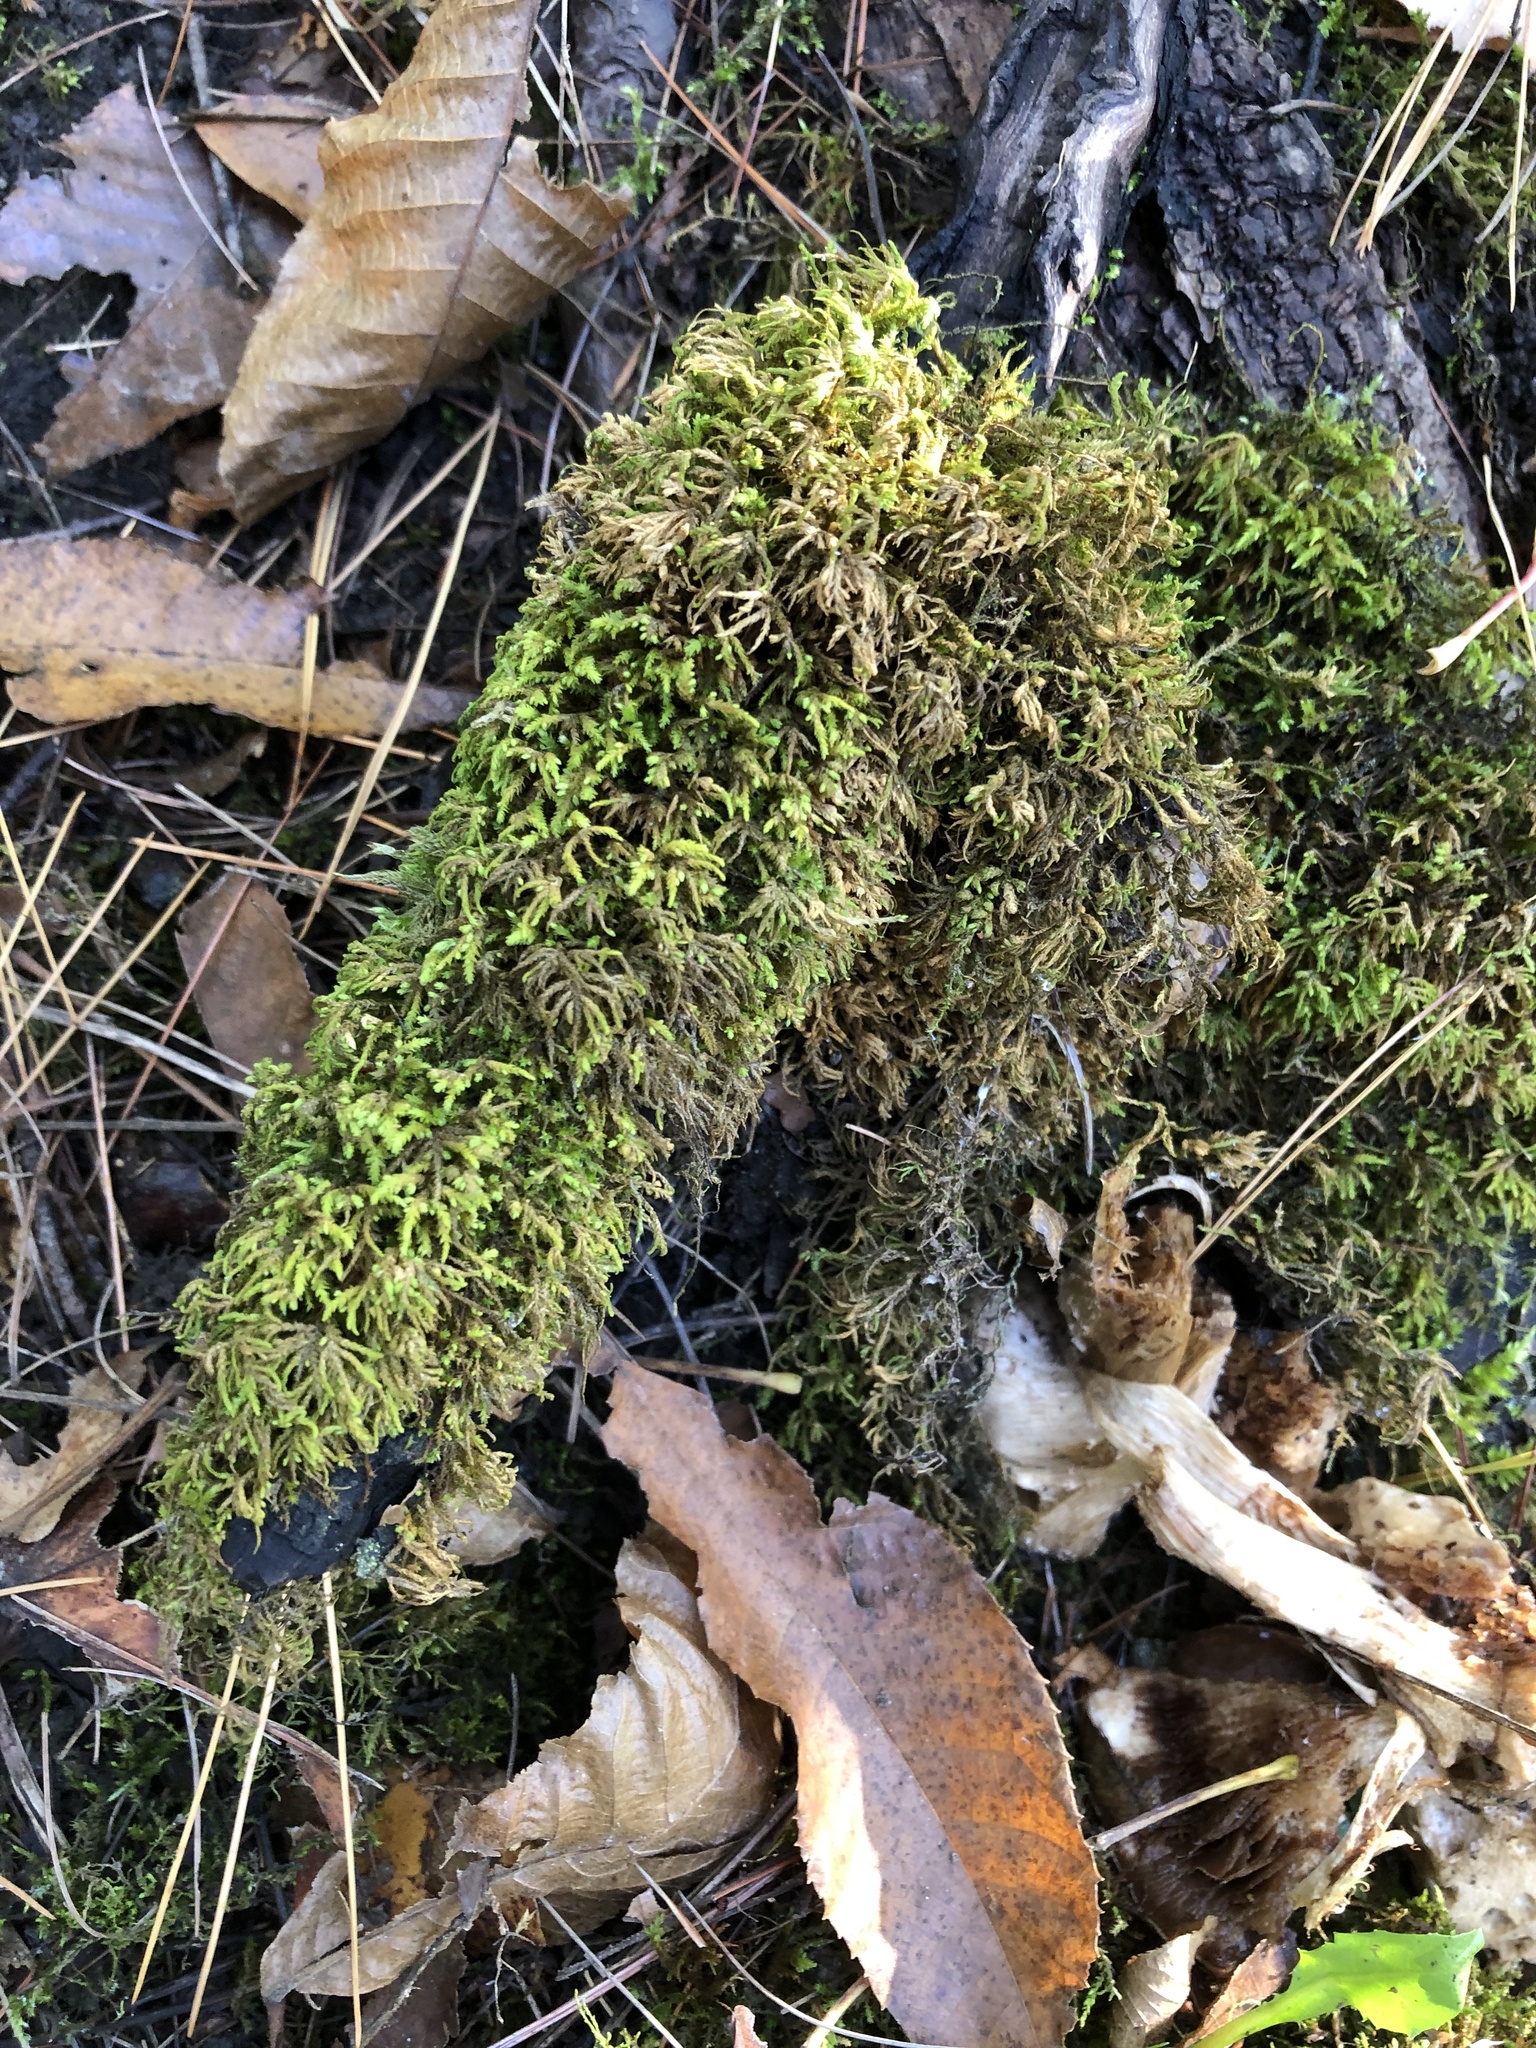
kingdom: Plantae
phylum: Bryophyta
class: Bryopsida
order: Hypnales
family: Neckeraceae
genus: Pseudanomodon
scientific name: Pseudanomodon attenuatus
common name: Tree-skirt moss
